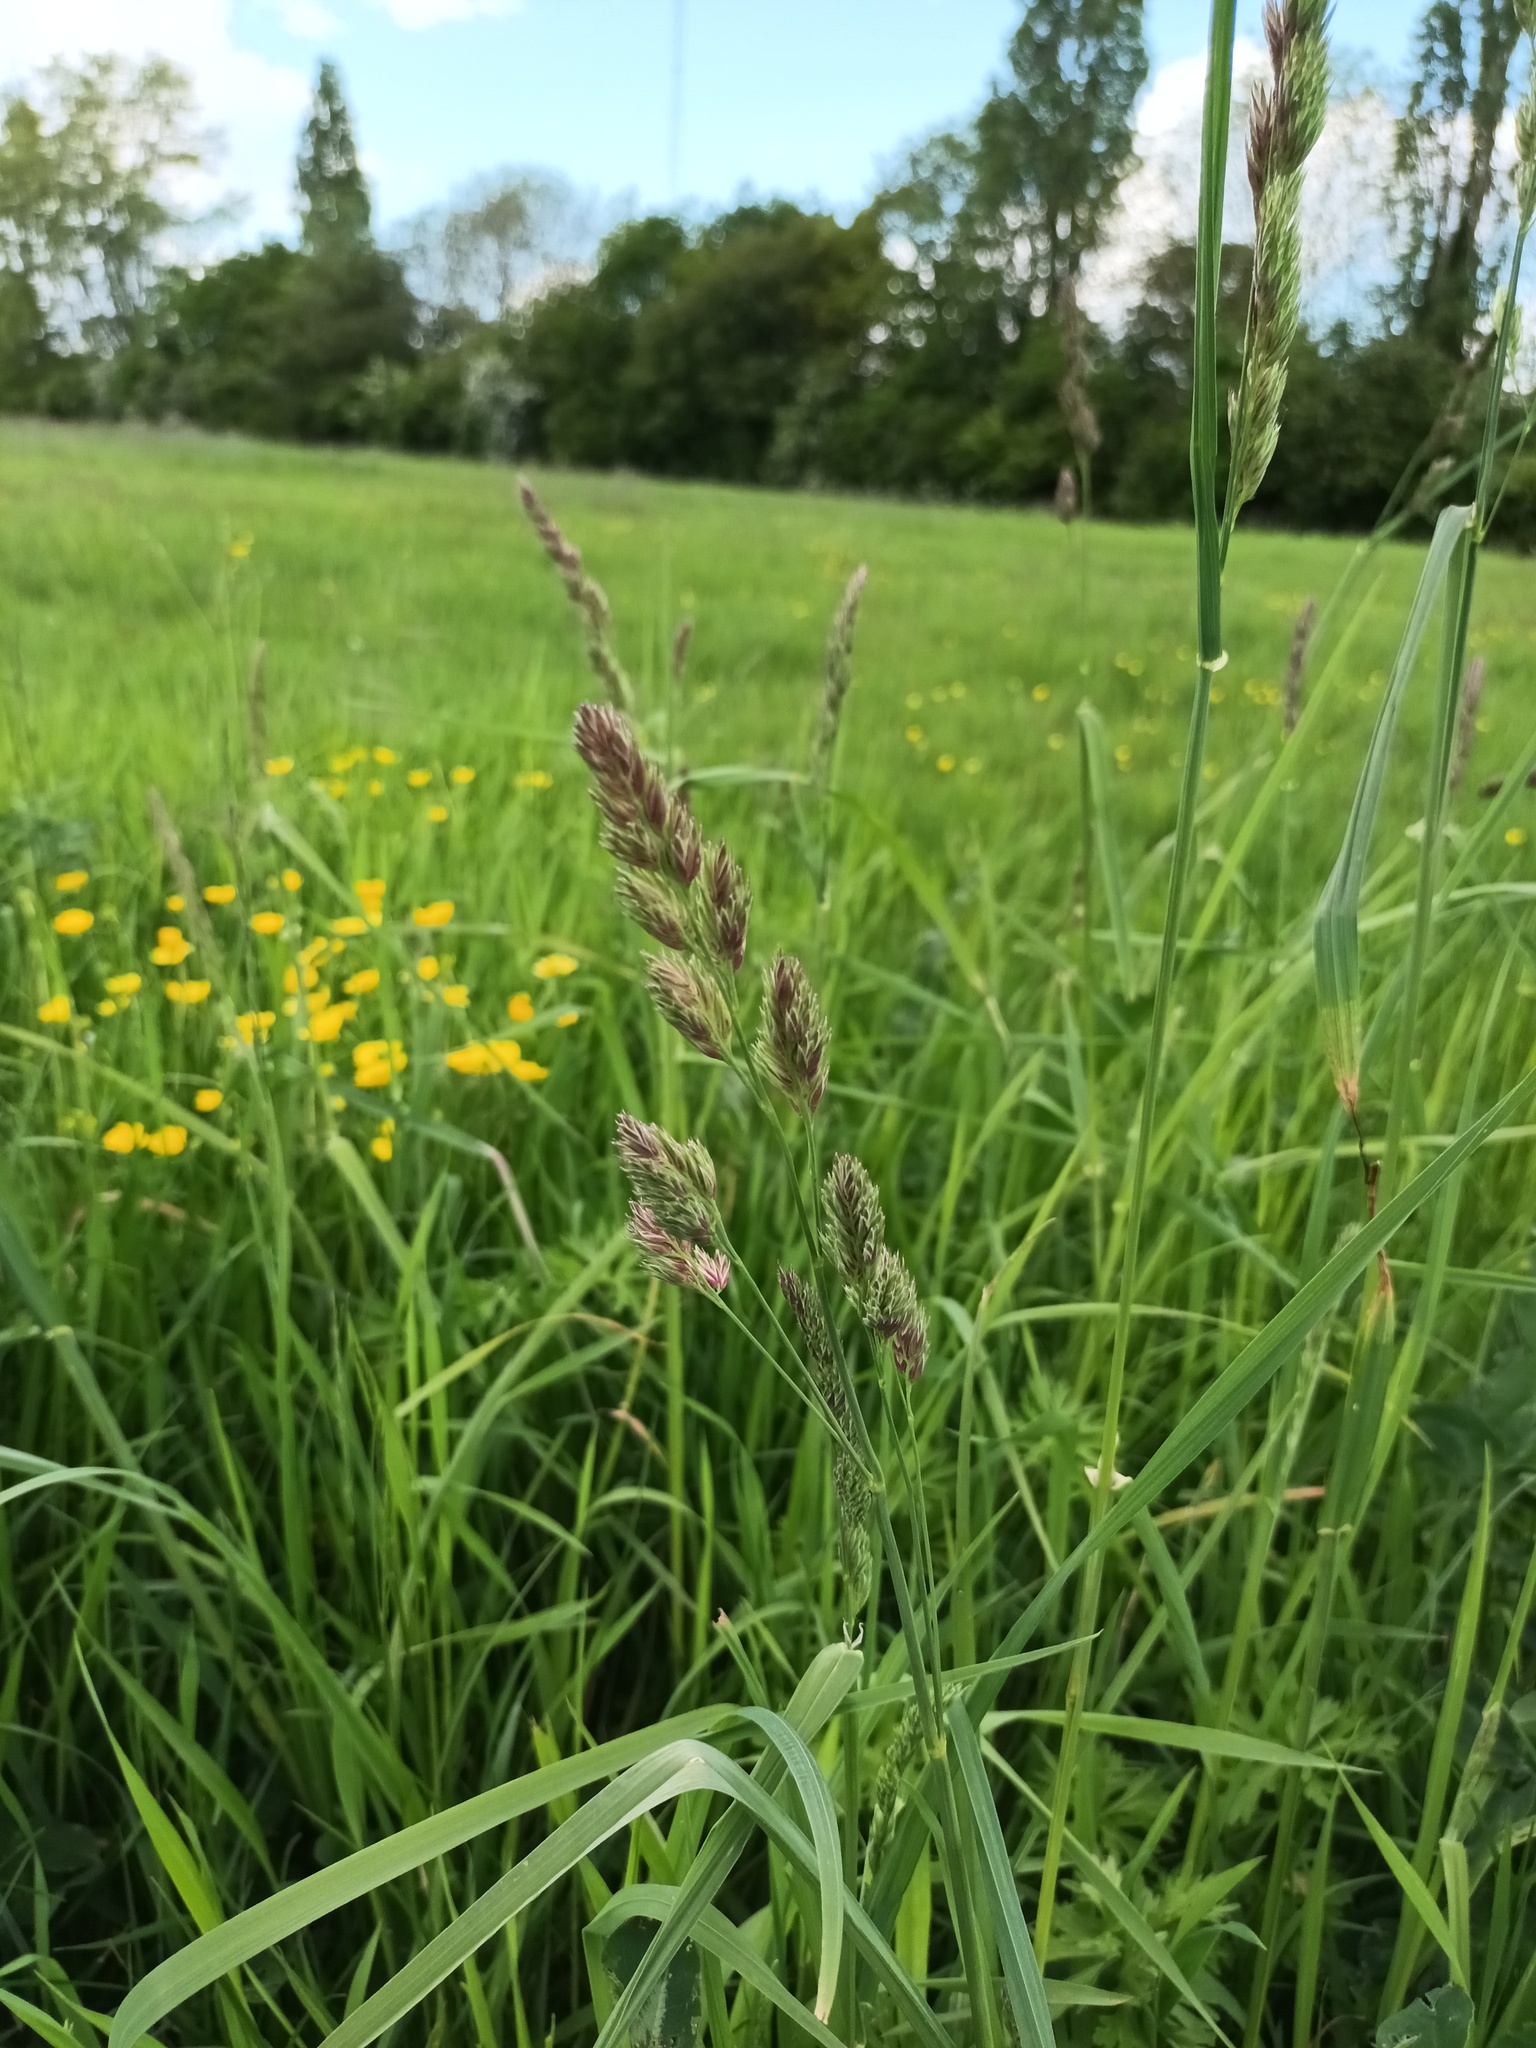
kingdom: Plantae
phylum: Tracheophyta
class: Liliopsida
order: Poales
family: Poaceae
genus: Dactylis
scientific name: Dactylis glomerata
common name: Orchardgrass
